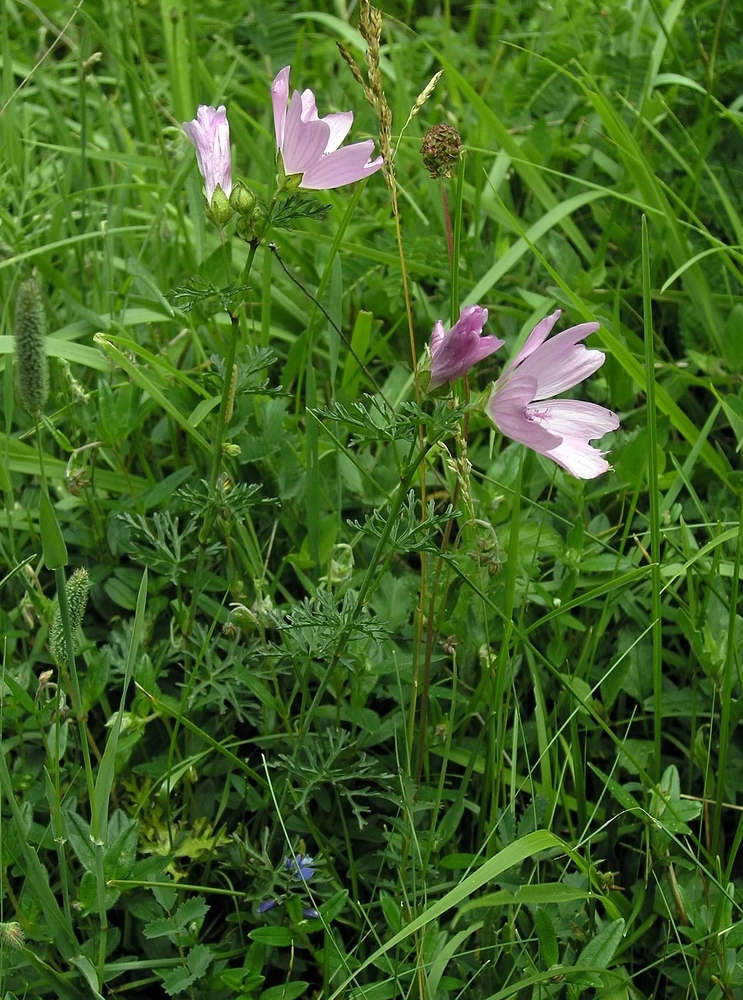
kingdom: Plantae
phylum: Tracheophyta
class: Magnoliopsida
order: Malvales
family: Malvaceae
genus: Malva
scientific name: Malva moschata
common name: Musk mallow
